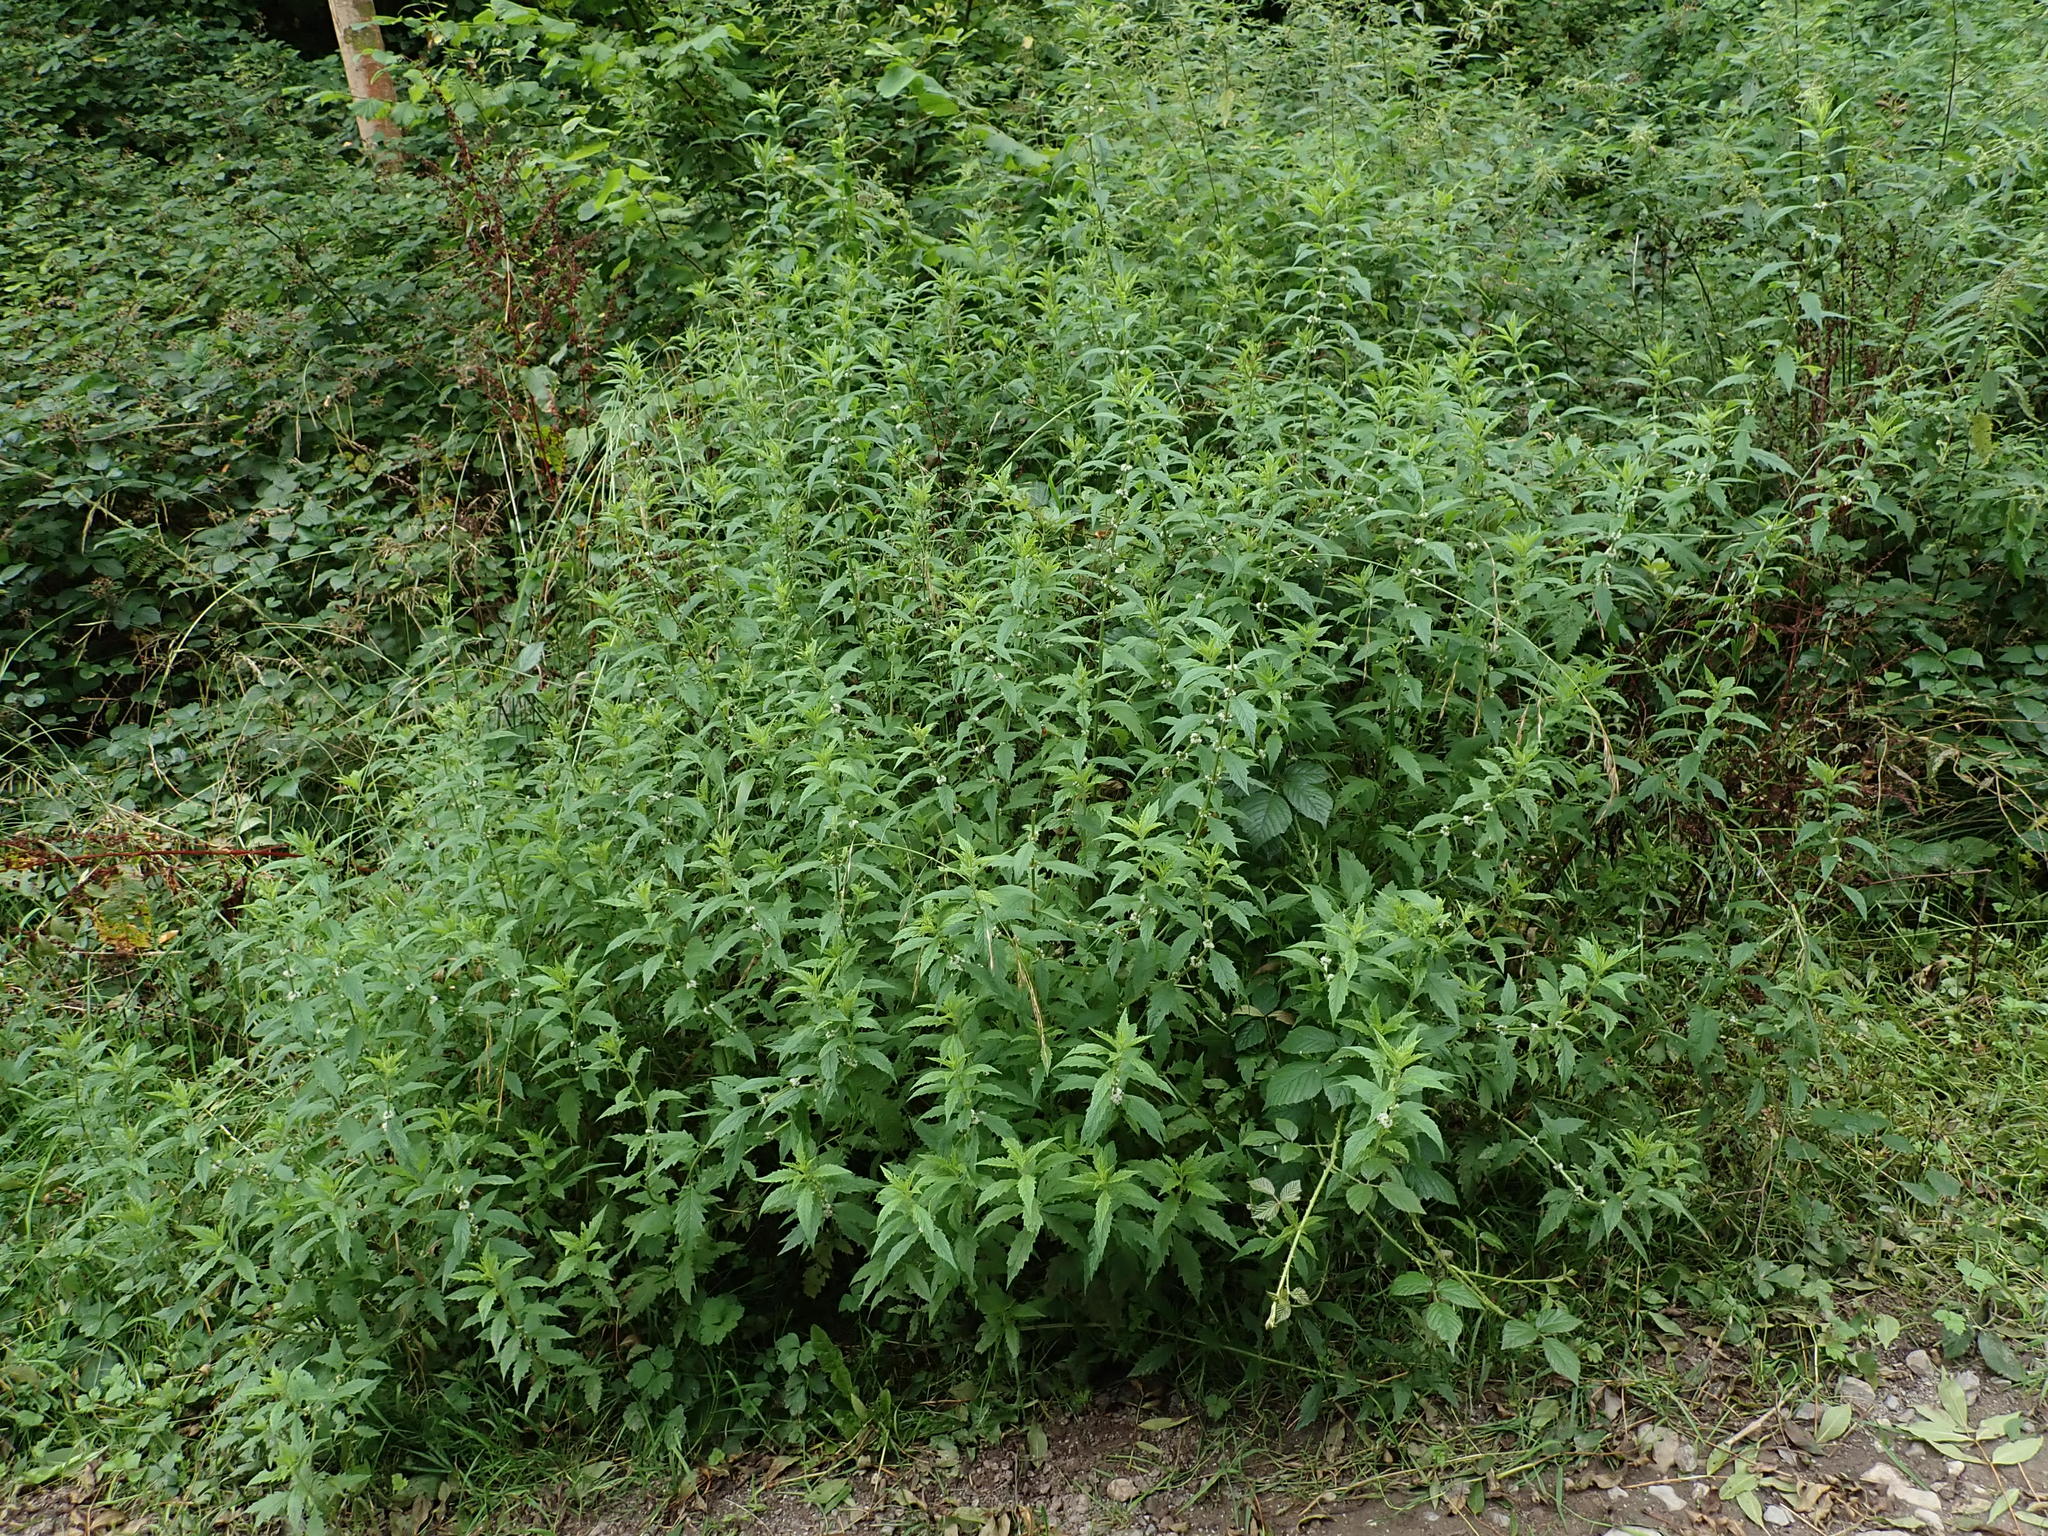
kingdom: Plantae
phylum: Tracheophyta
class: Magnoliopsida
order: Lamiales
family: Lamiaceae
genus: Lycopus
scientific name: Lycopus europaeus
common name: European bugleweed
